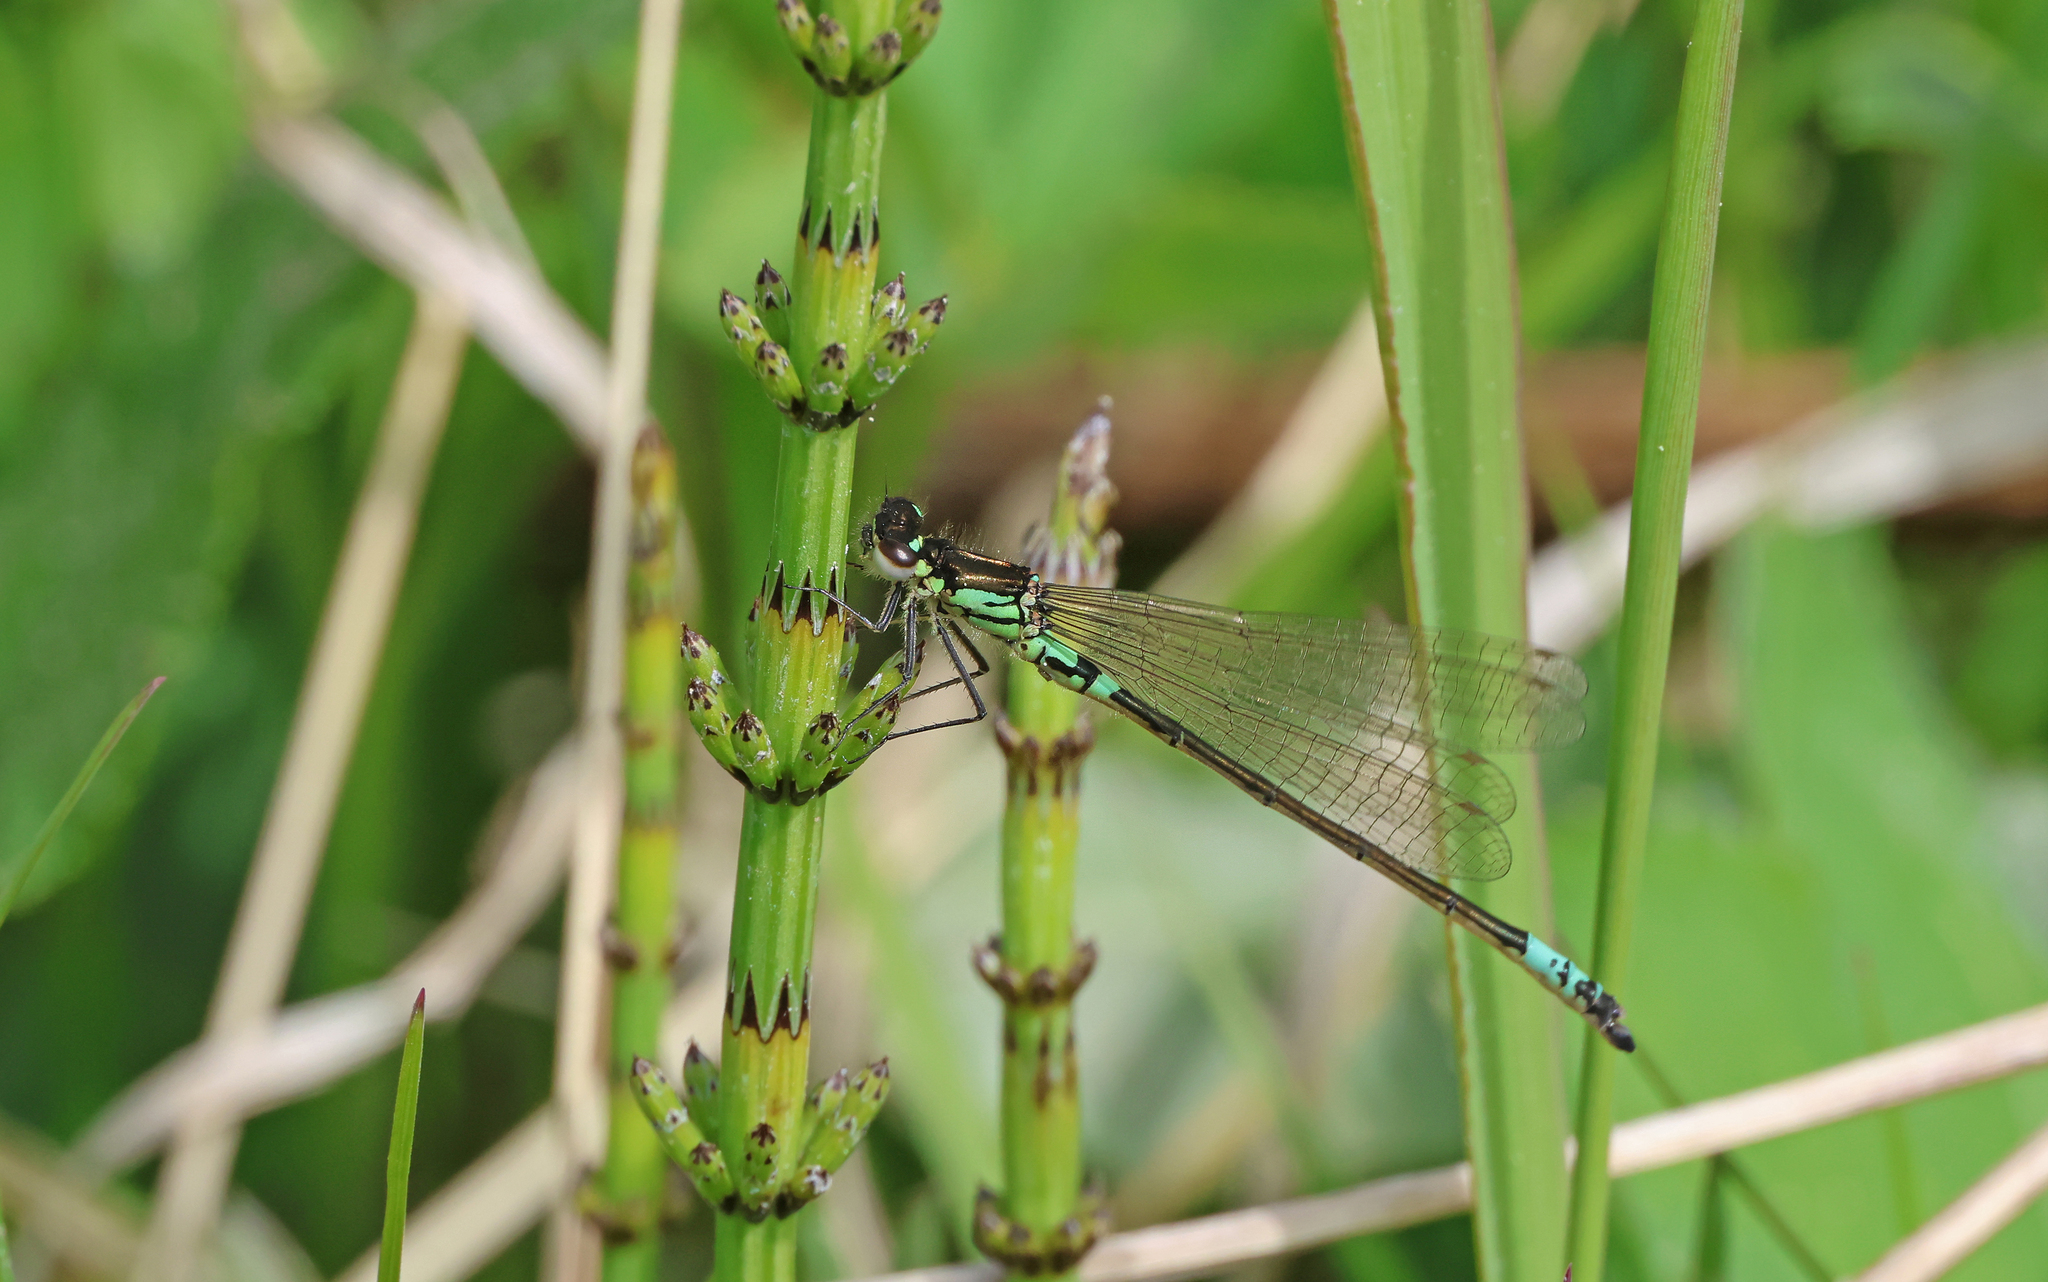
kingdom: Animalia
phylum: Arthropoda
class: Insecta
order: Odonata
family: Coenagrionidae
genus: Coenagrion
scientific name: Coenagrion armatum
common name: Dark bluet
